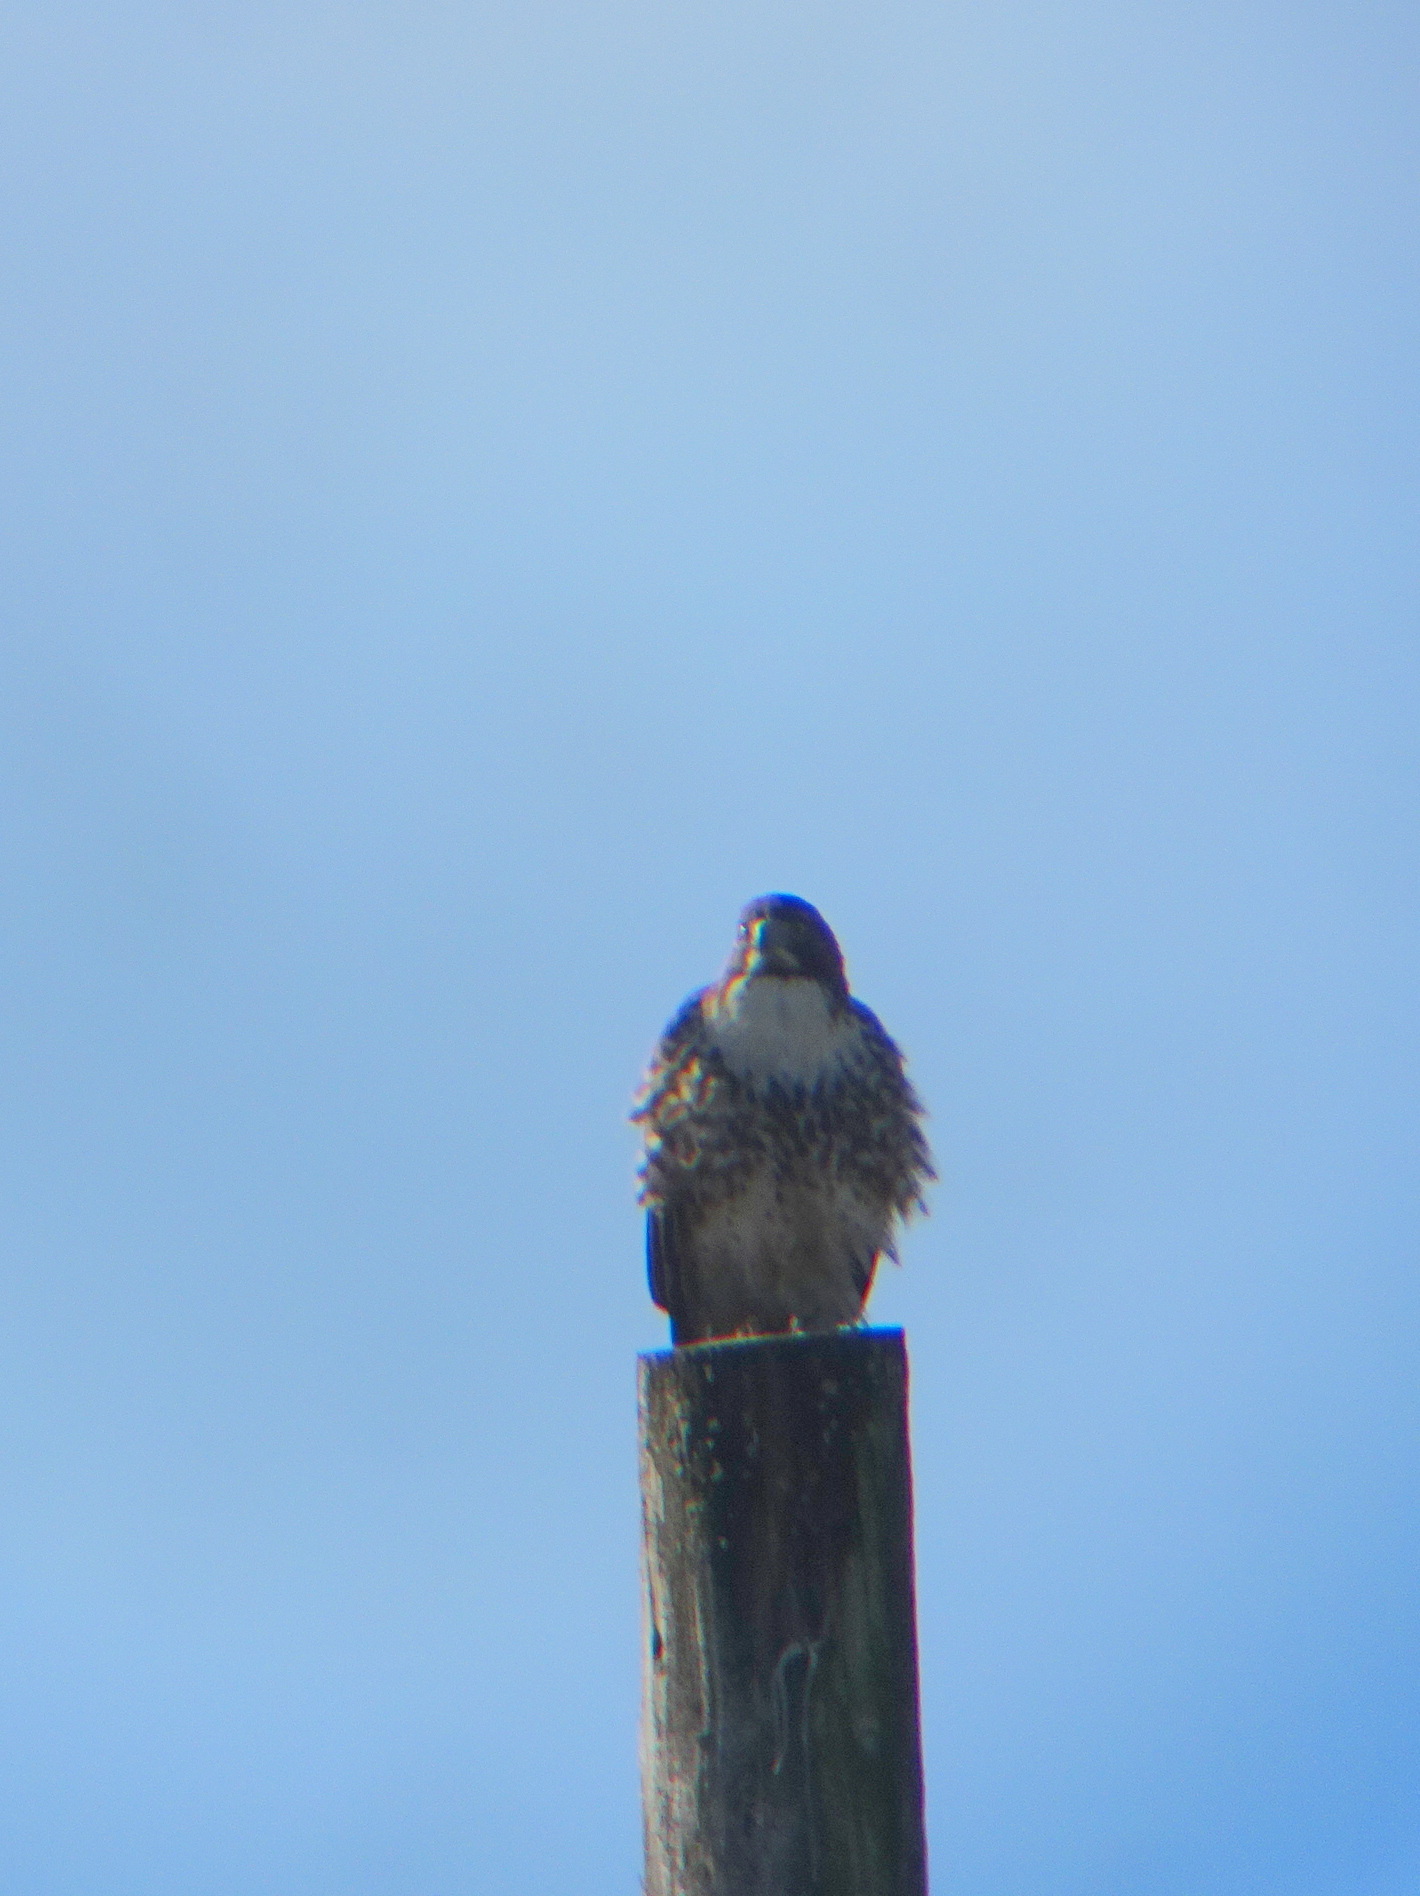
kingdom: Animalia
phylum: Chordata
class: Aves
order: Accipitriformes
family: Accipitridae
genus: Buteo
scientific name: Buteo jamaicensis
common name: Red-tailed hawk
